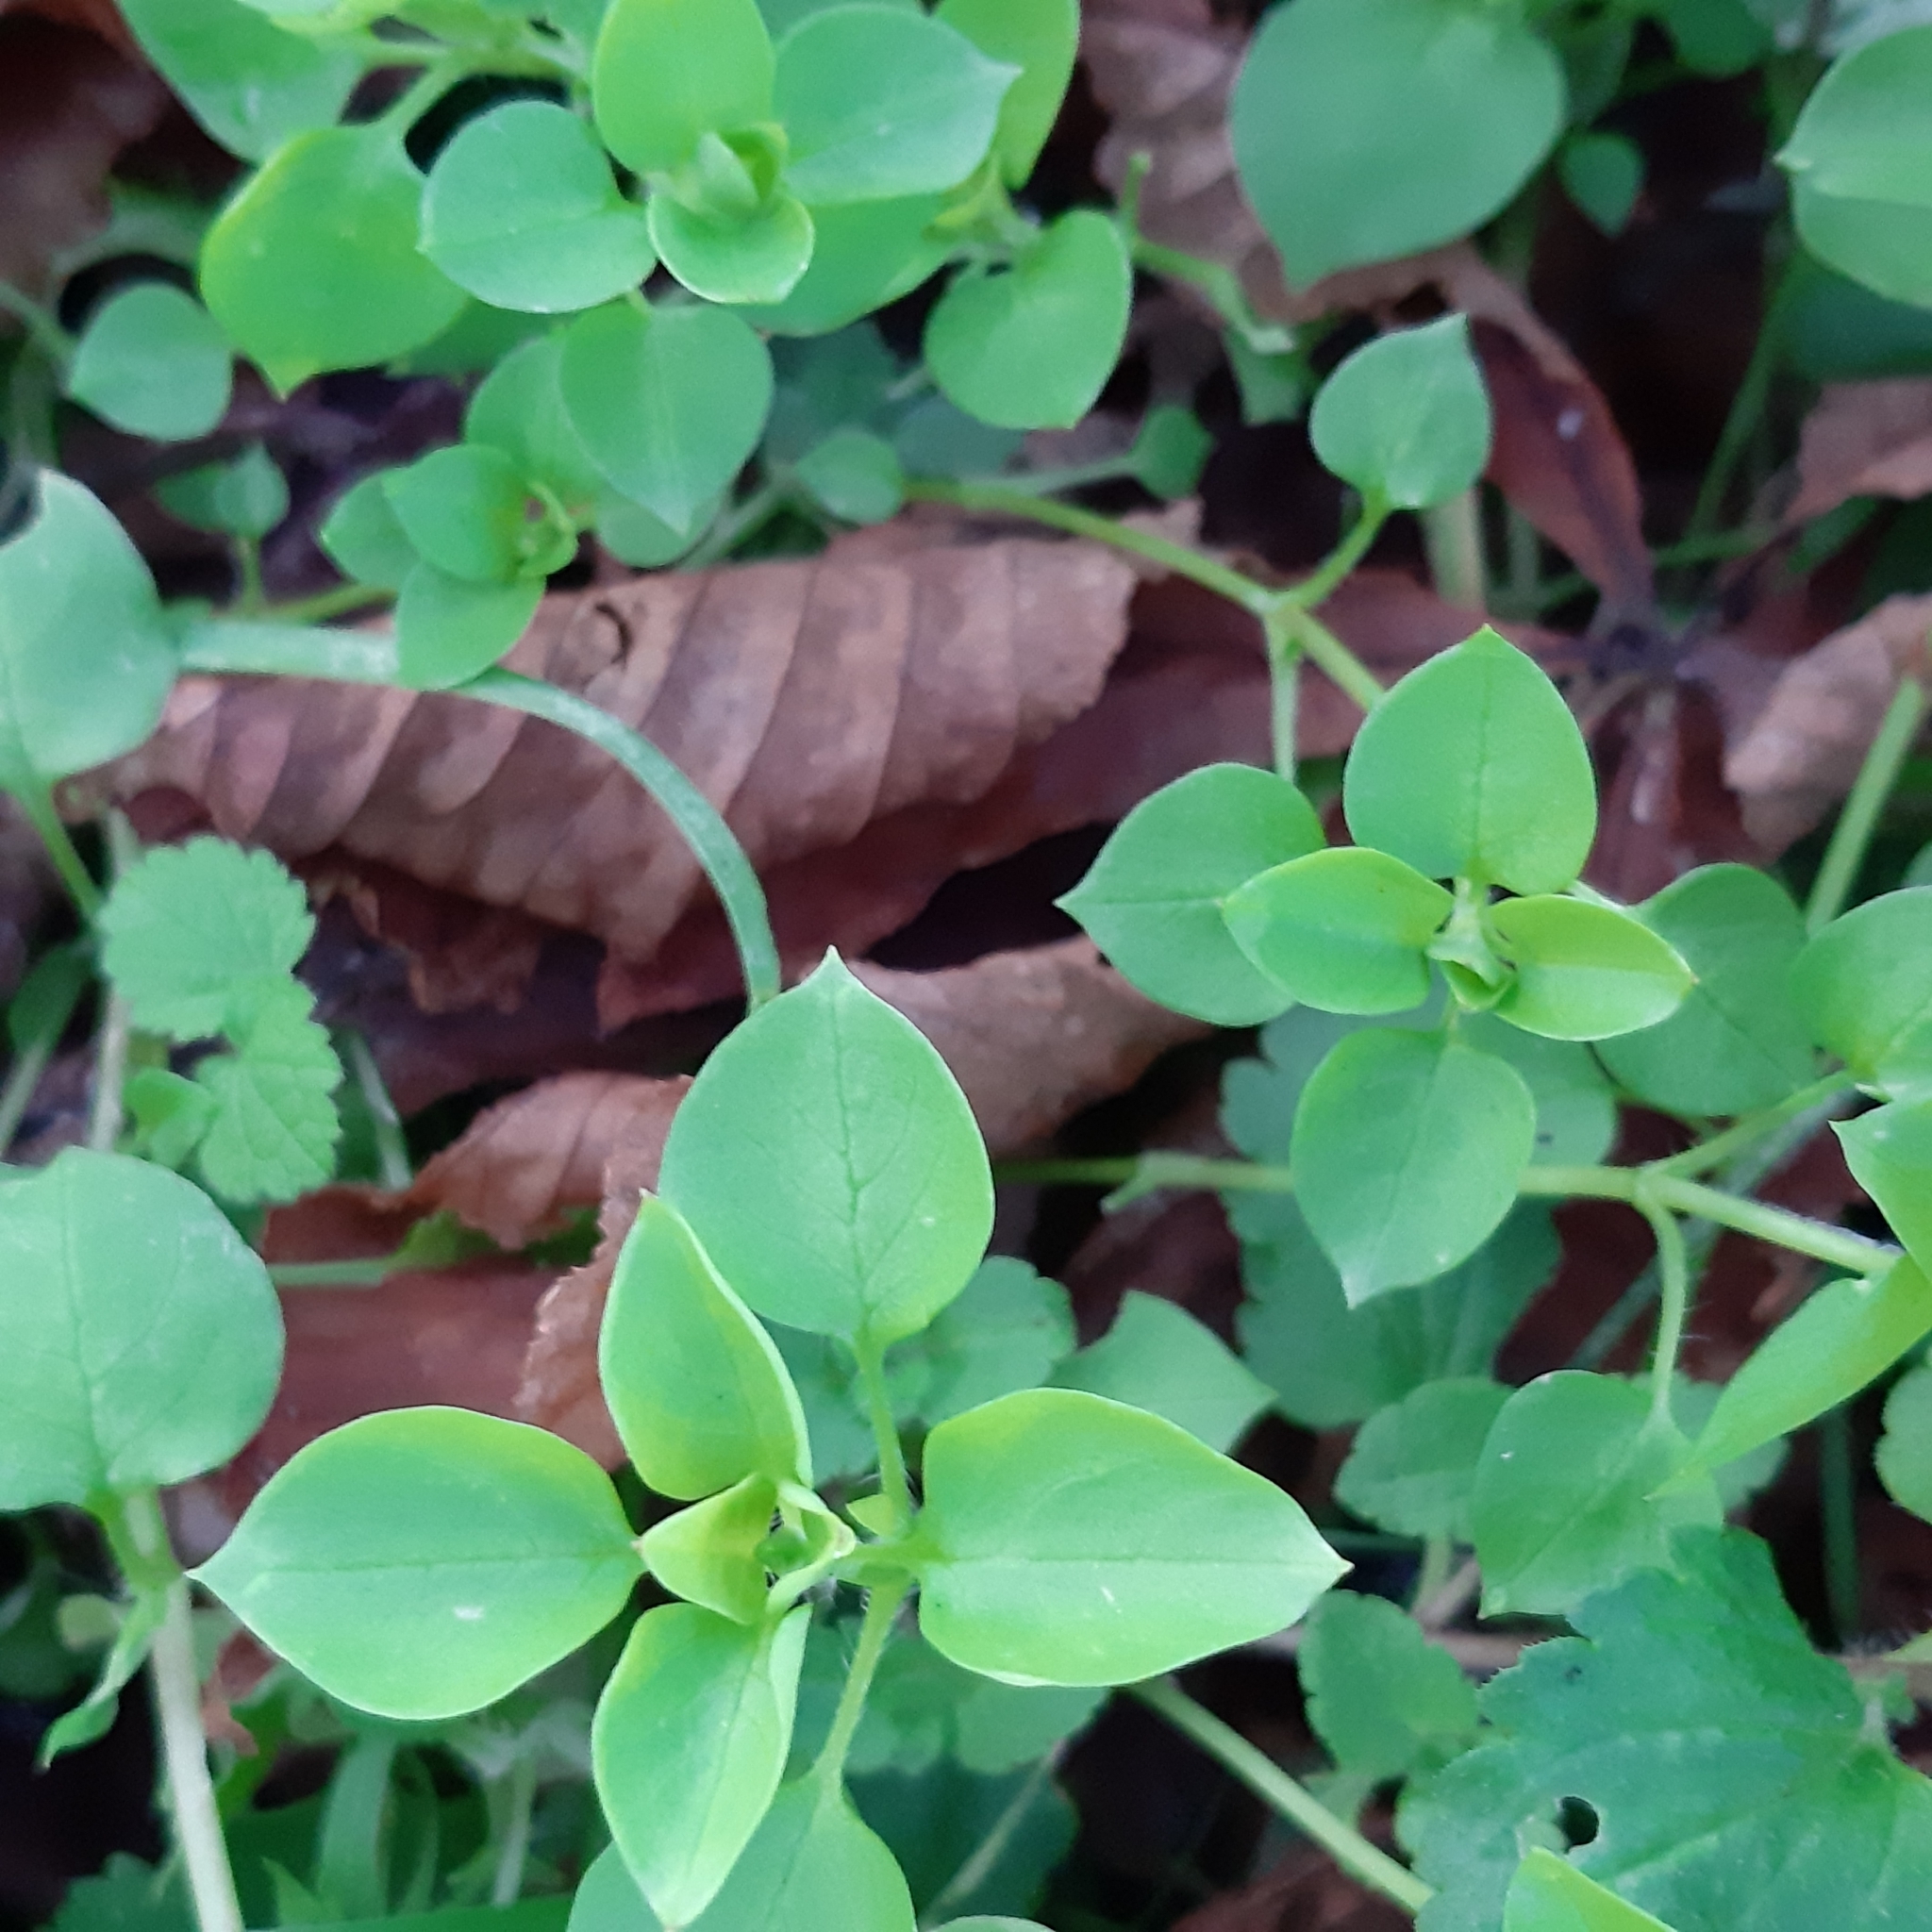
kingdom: Plantae
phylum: Tracheophyta
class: Magnoliopsida
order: Caryophyllales
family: Caryophyllaceae
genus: Stellaria
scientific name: Stellaria media
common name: Common chickweed
